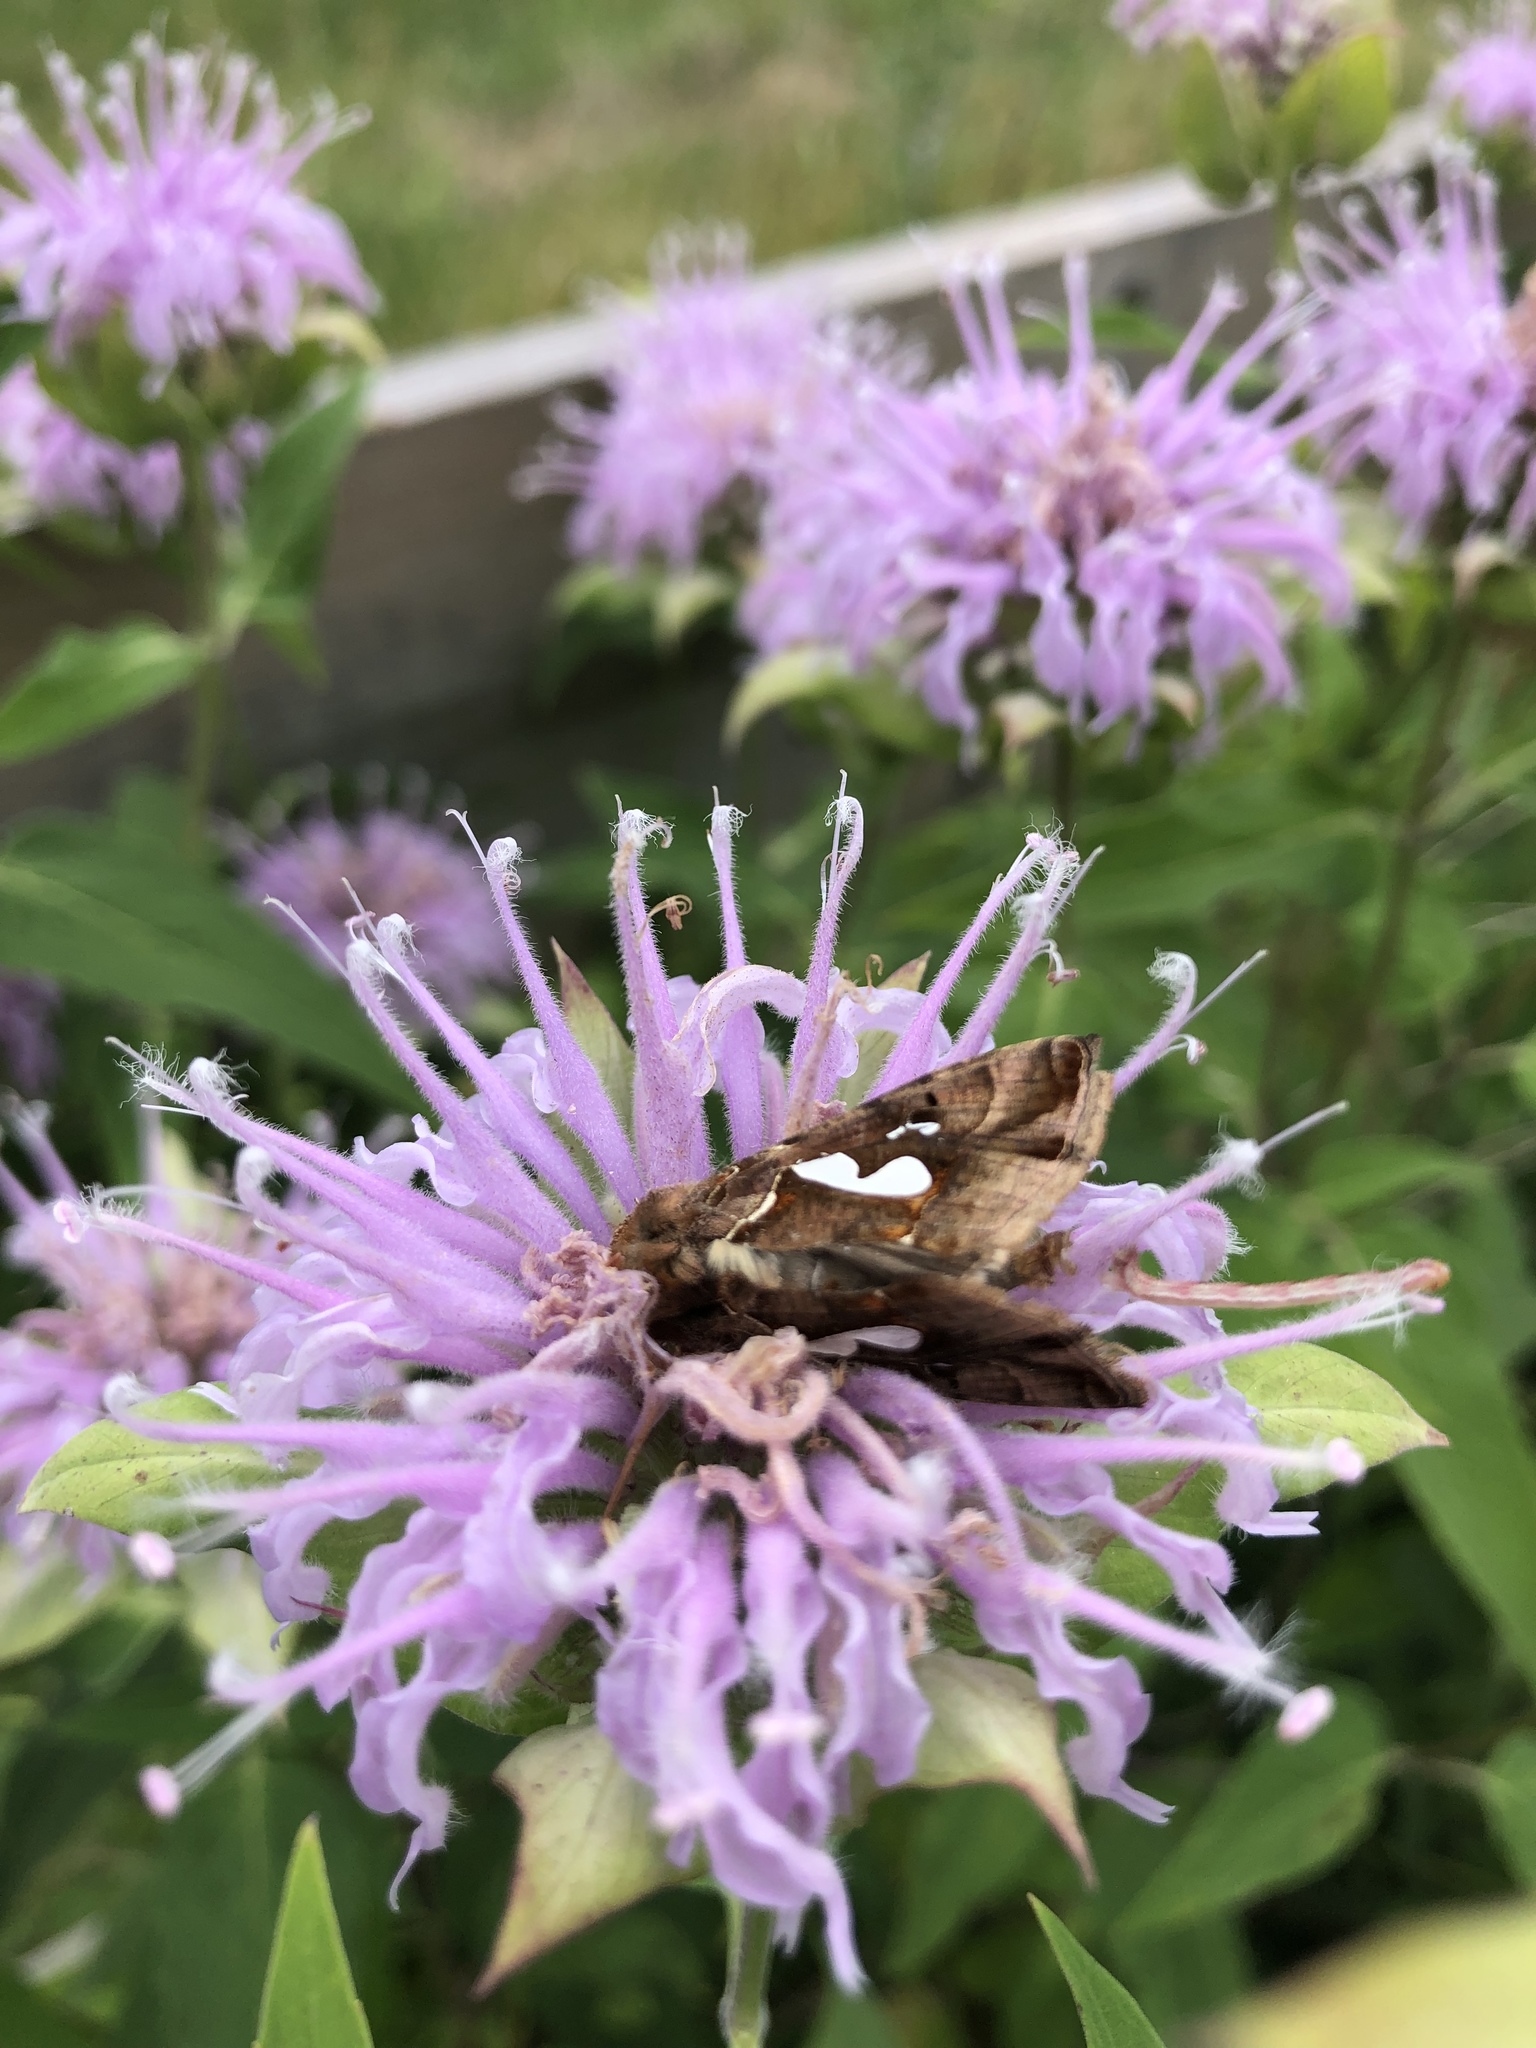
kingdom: Animalia
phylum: Arthropoda
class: Insecta
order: Lepidoptera
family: Noctuidae
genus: Megalographa
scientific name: Megalographa biloba
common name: Cutworm
